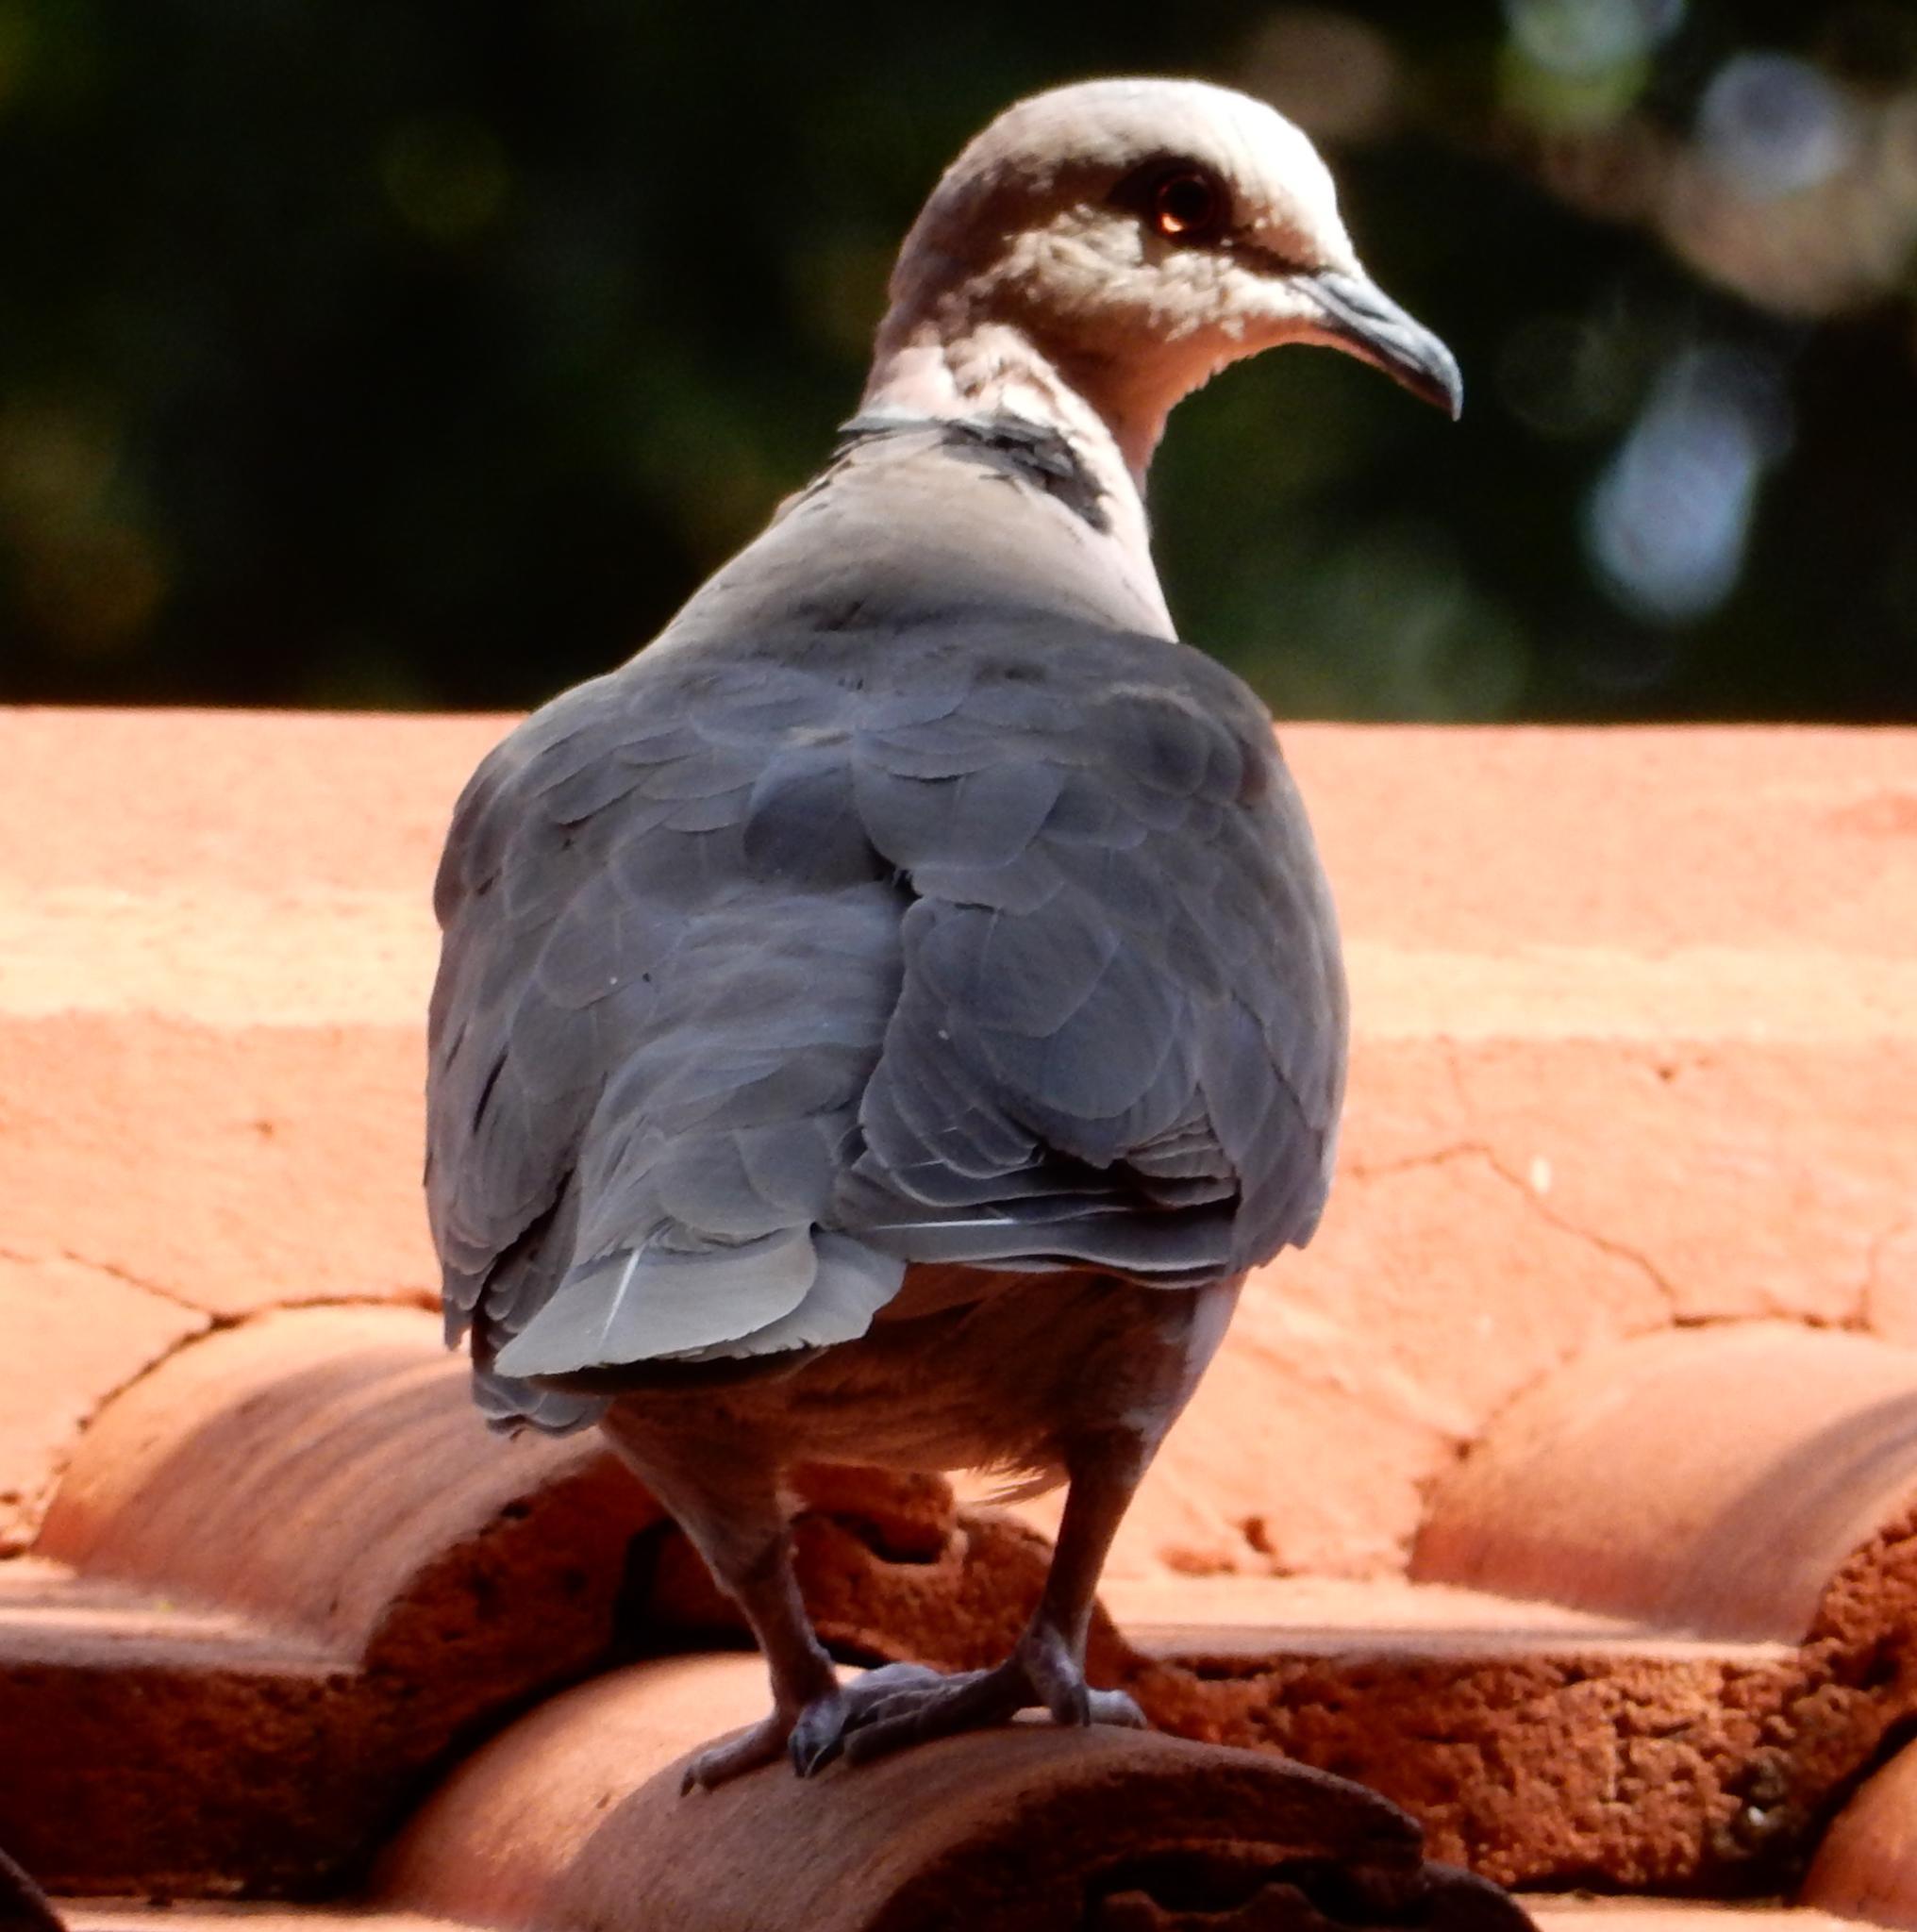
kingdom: Animalia
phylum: Chordata
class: Aves
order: Columbiformes
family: Columbidae
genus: Streptopelia
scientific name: Streptopelia semitorquata
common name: Red-eyed dove
